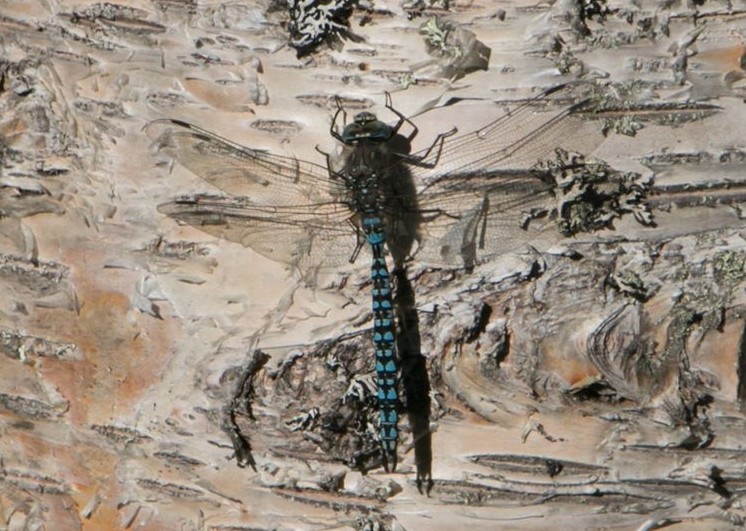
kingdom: Animalia
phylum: Arthropoda
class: Insecta
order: Odonata
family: Aeshnidae
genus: Aeshna
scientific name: Aeshna caerulea
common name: Azure hawker
